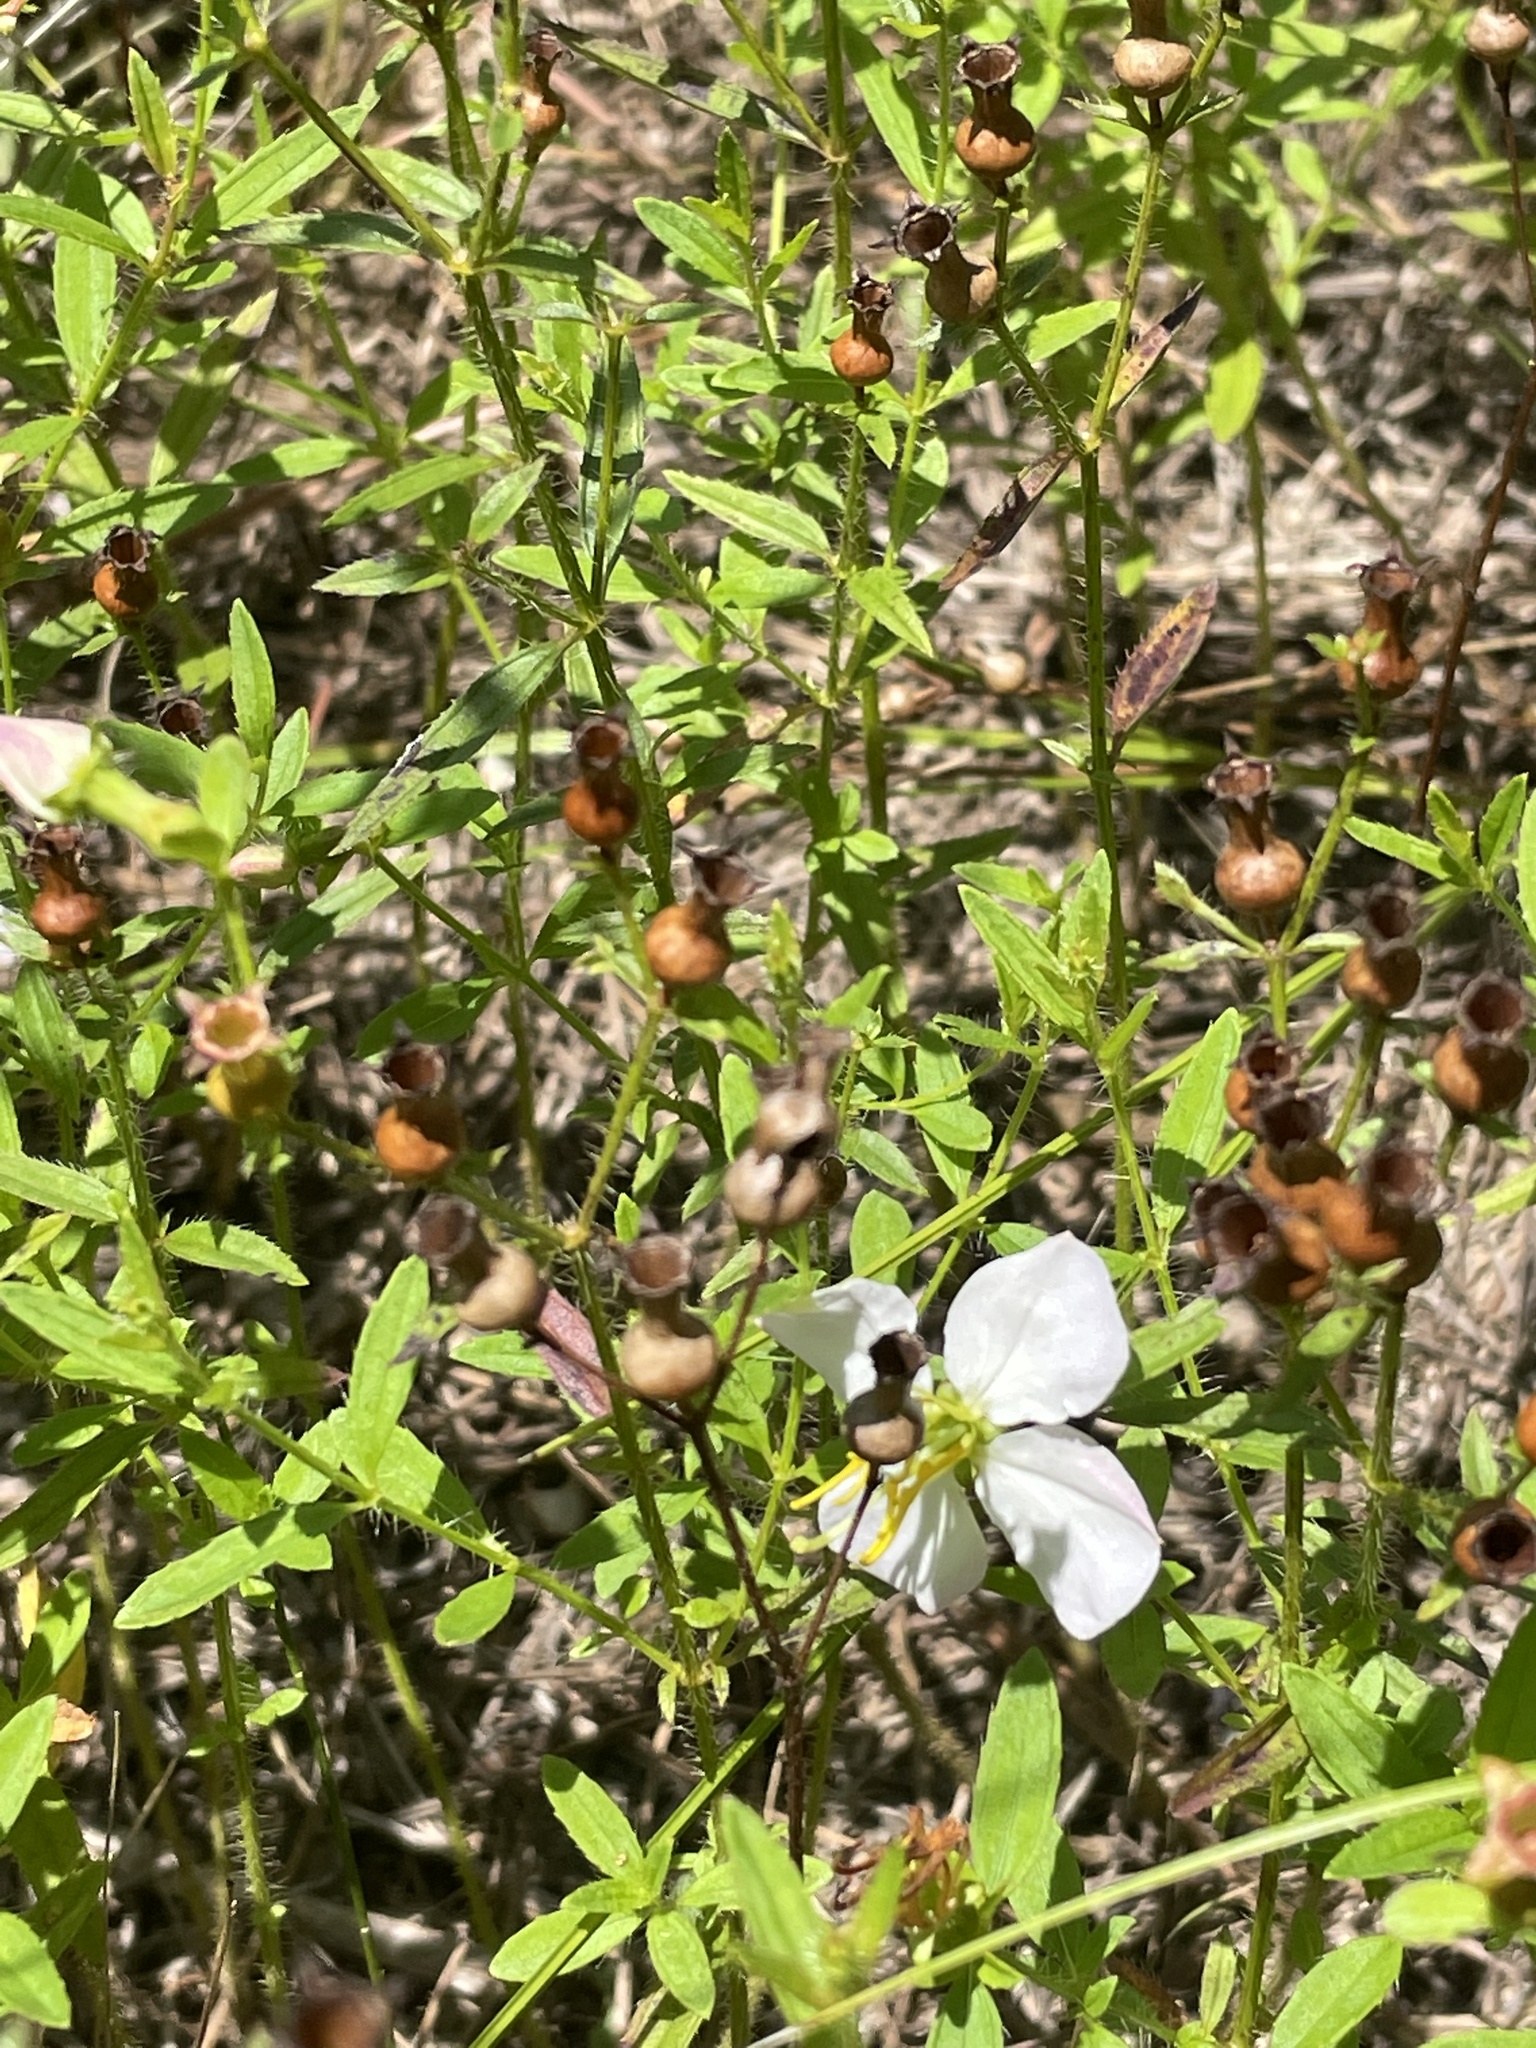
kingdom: Plantae
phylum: Tracheophyta
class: Magnoliopsida
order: Myrtales
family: Melastomataceae
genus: Rhexia
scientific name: Rhexia mariana
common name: Dull meadow-pitcher
